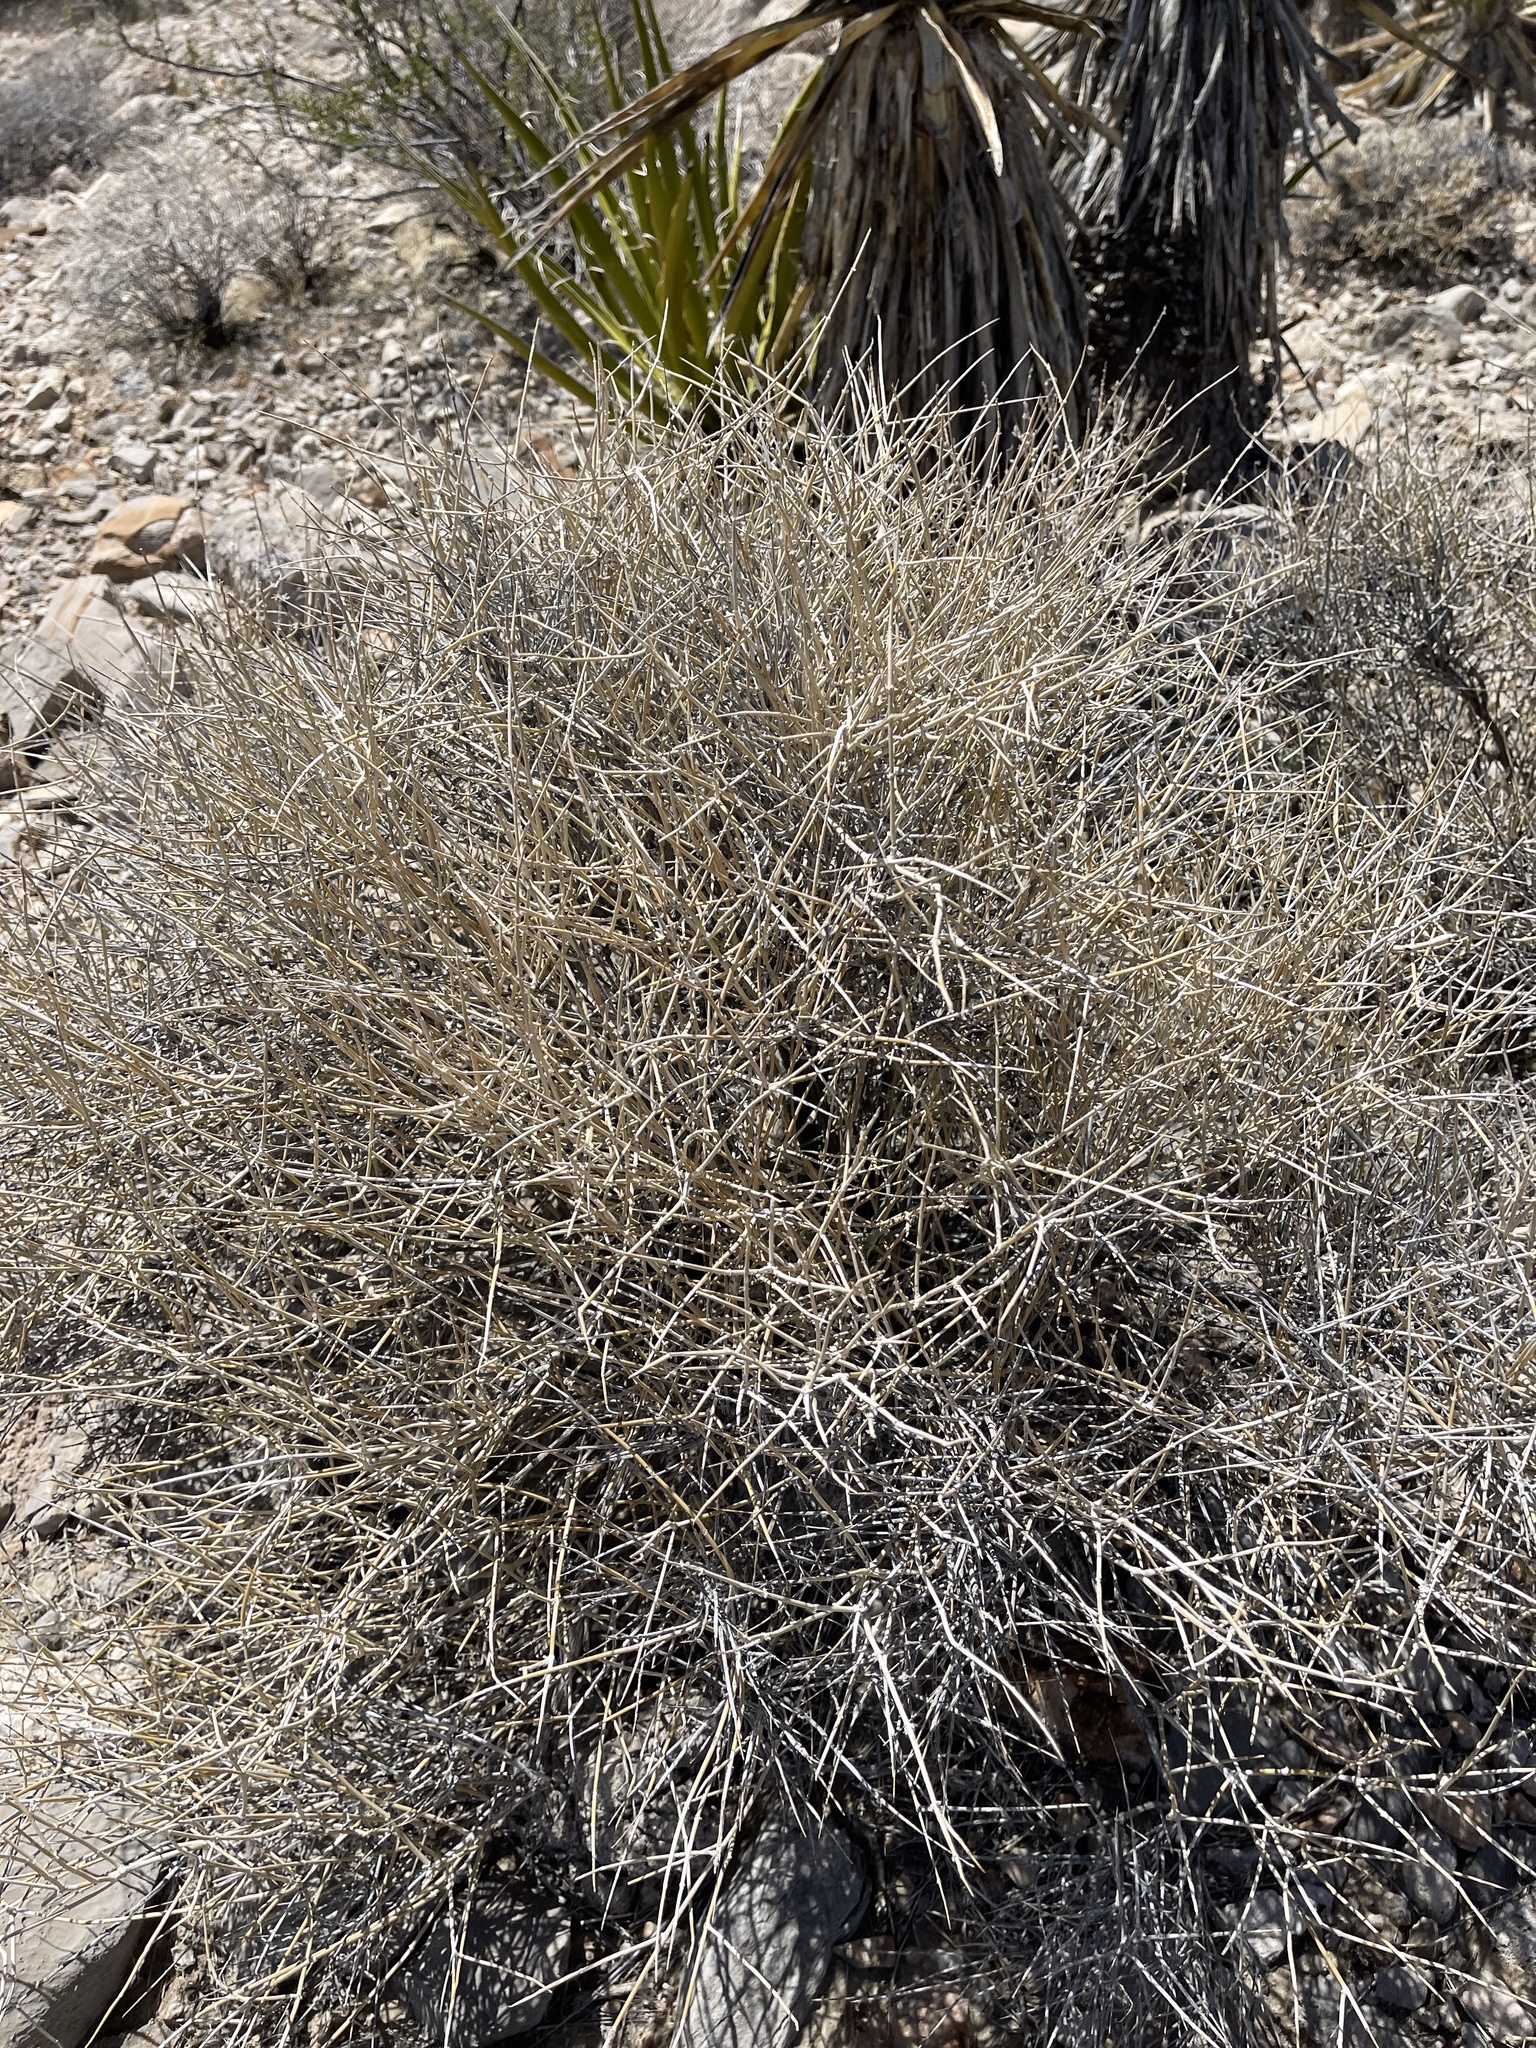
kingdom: Plantae
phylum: Tracheophyta
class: Gnetopsida
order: Ephedrales
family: Ephedraceae
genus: Ephedra
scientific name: Ephedra nevadensis
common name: Gray ephedra
